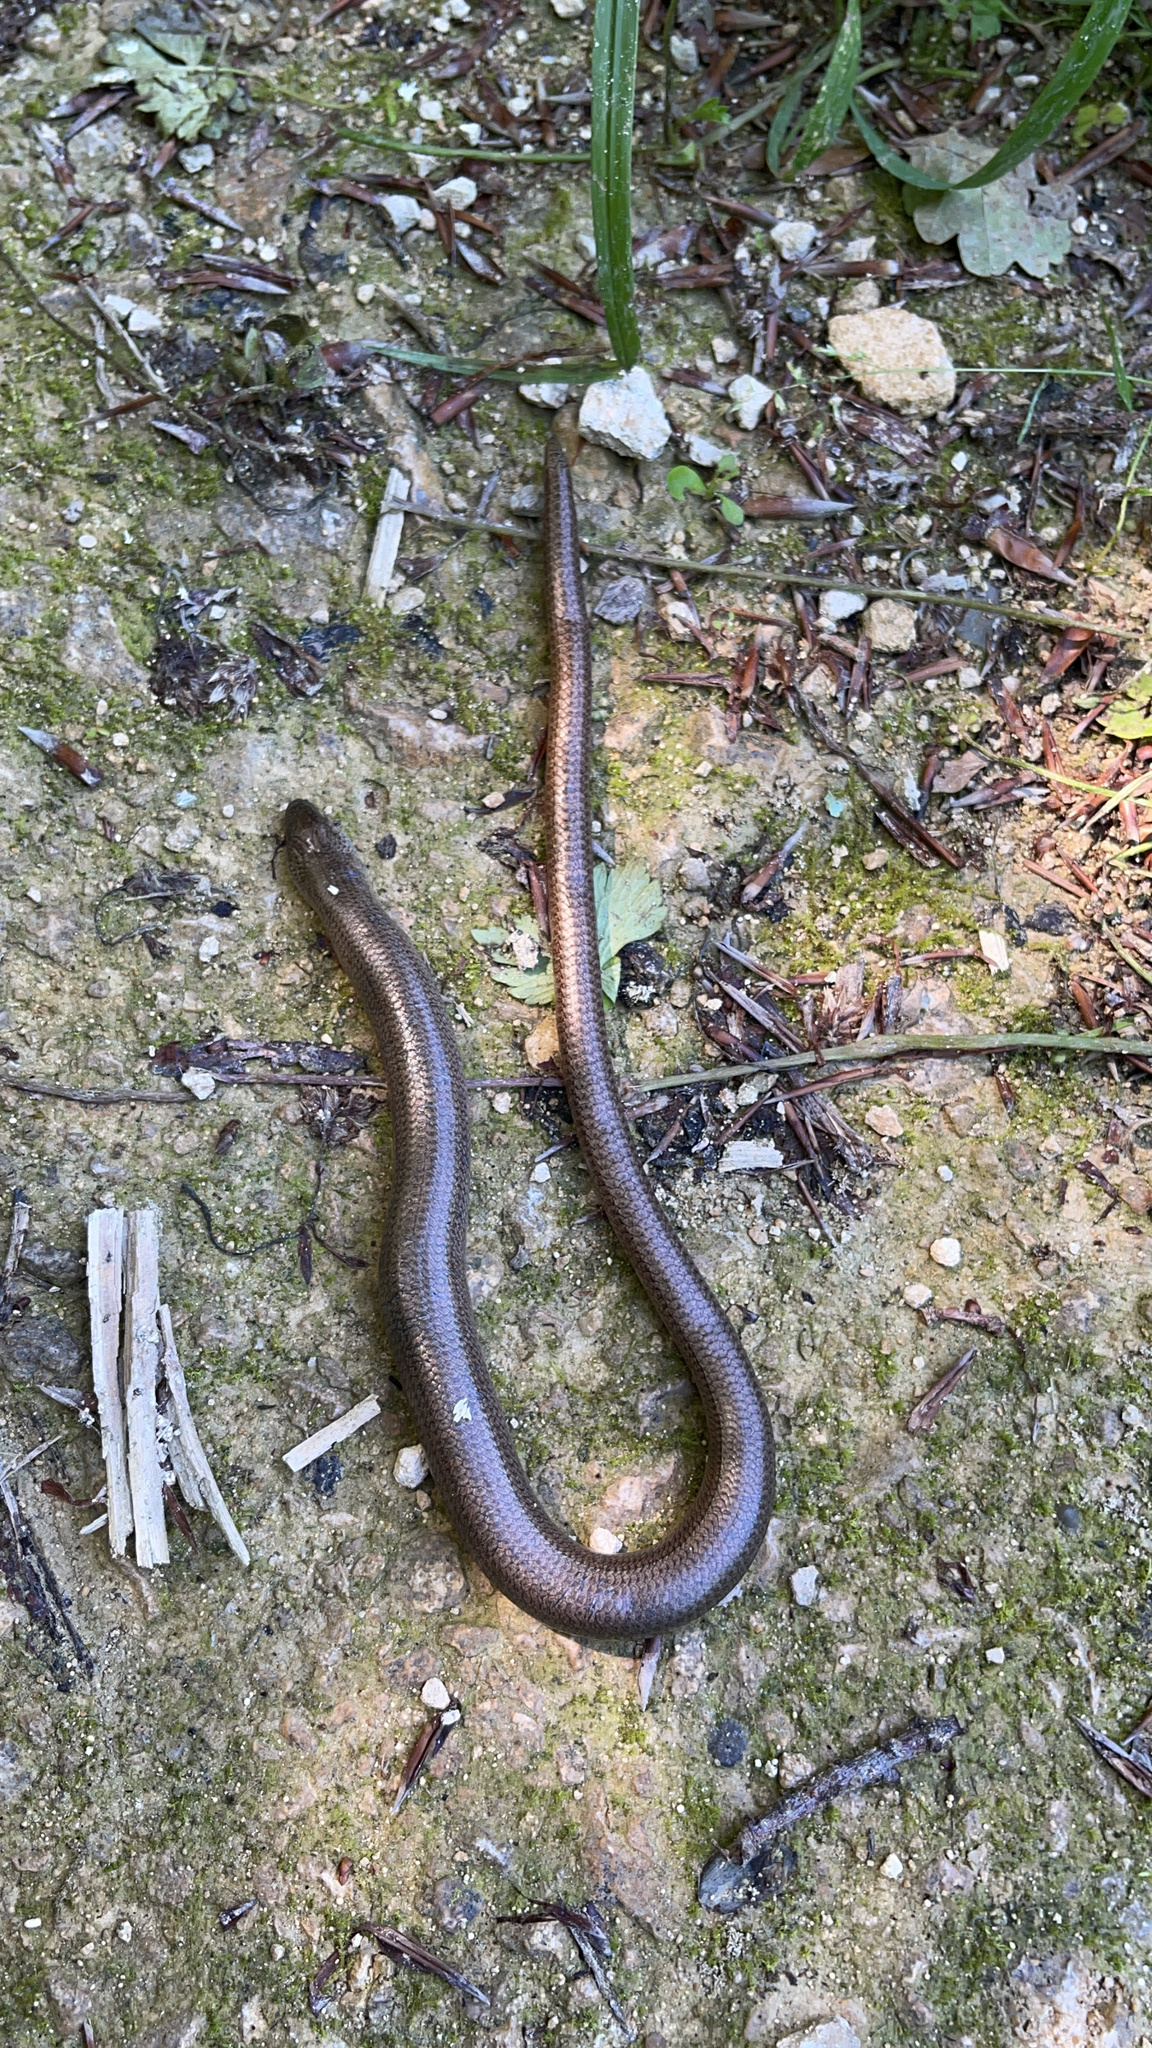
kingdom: Animalia
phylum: Chordata
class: Squamata
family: Anguidae
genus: Anguis
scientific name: Anguis fragilis
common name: Slow worm
